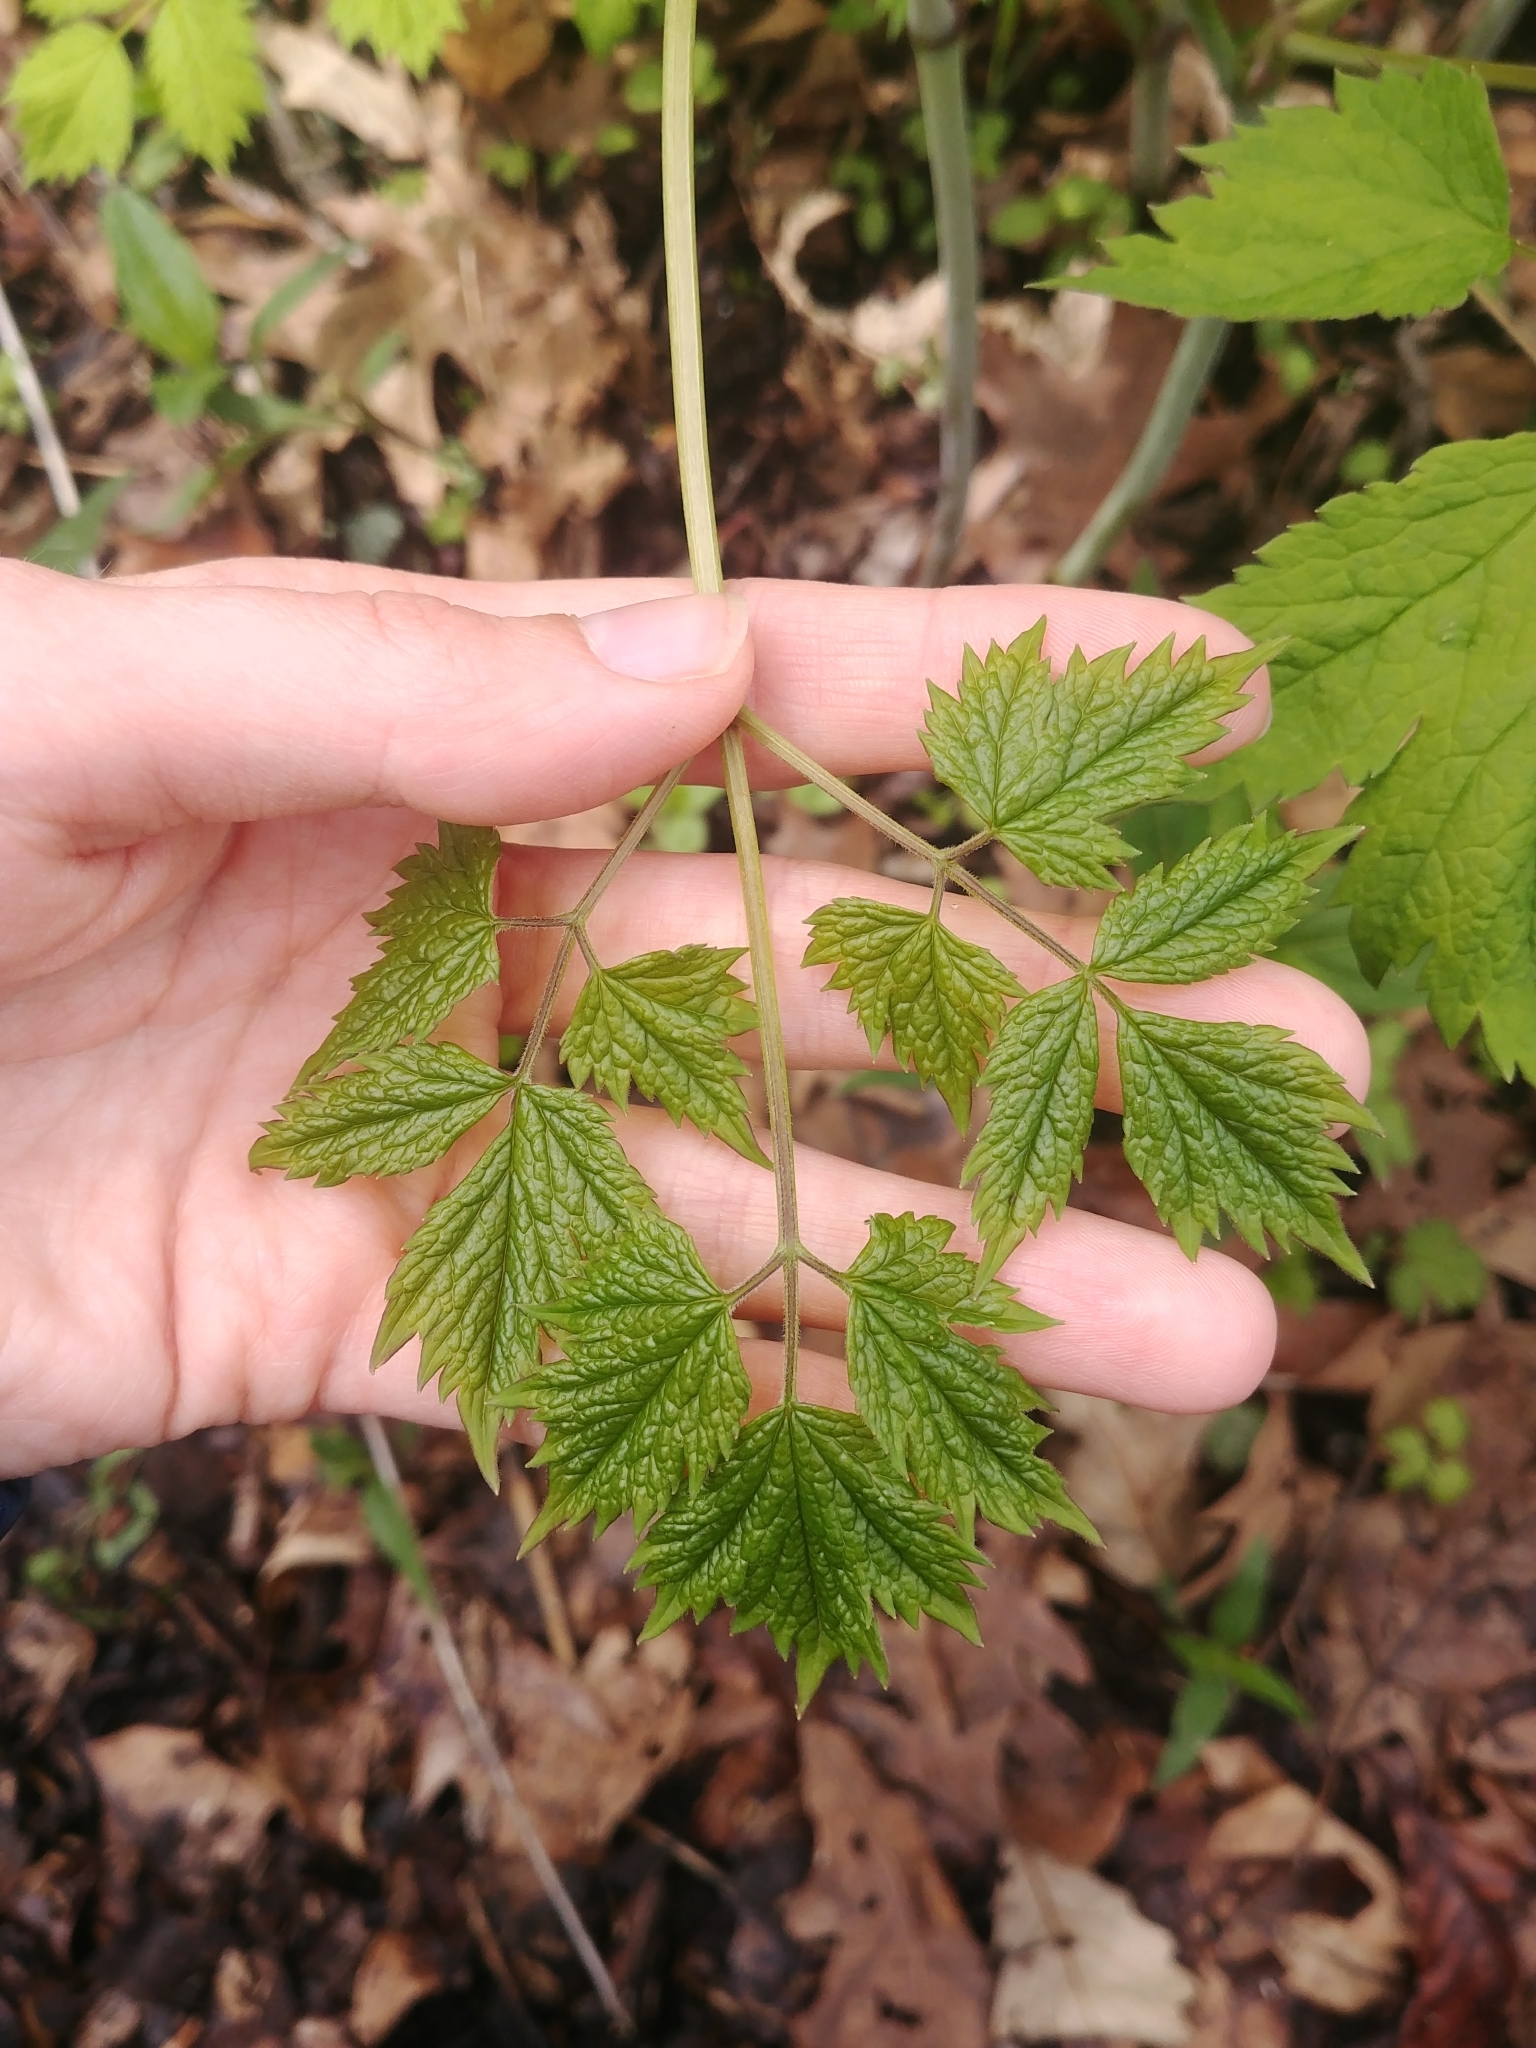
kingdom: Plantae
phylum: Tracheophyta
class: Magnoliopsida
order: Ranunculales
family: Ranunculaceae
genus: Actaea
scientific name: Actaea pachypoda
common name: Doll's-eyes
